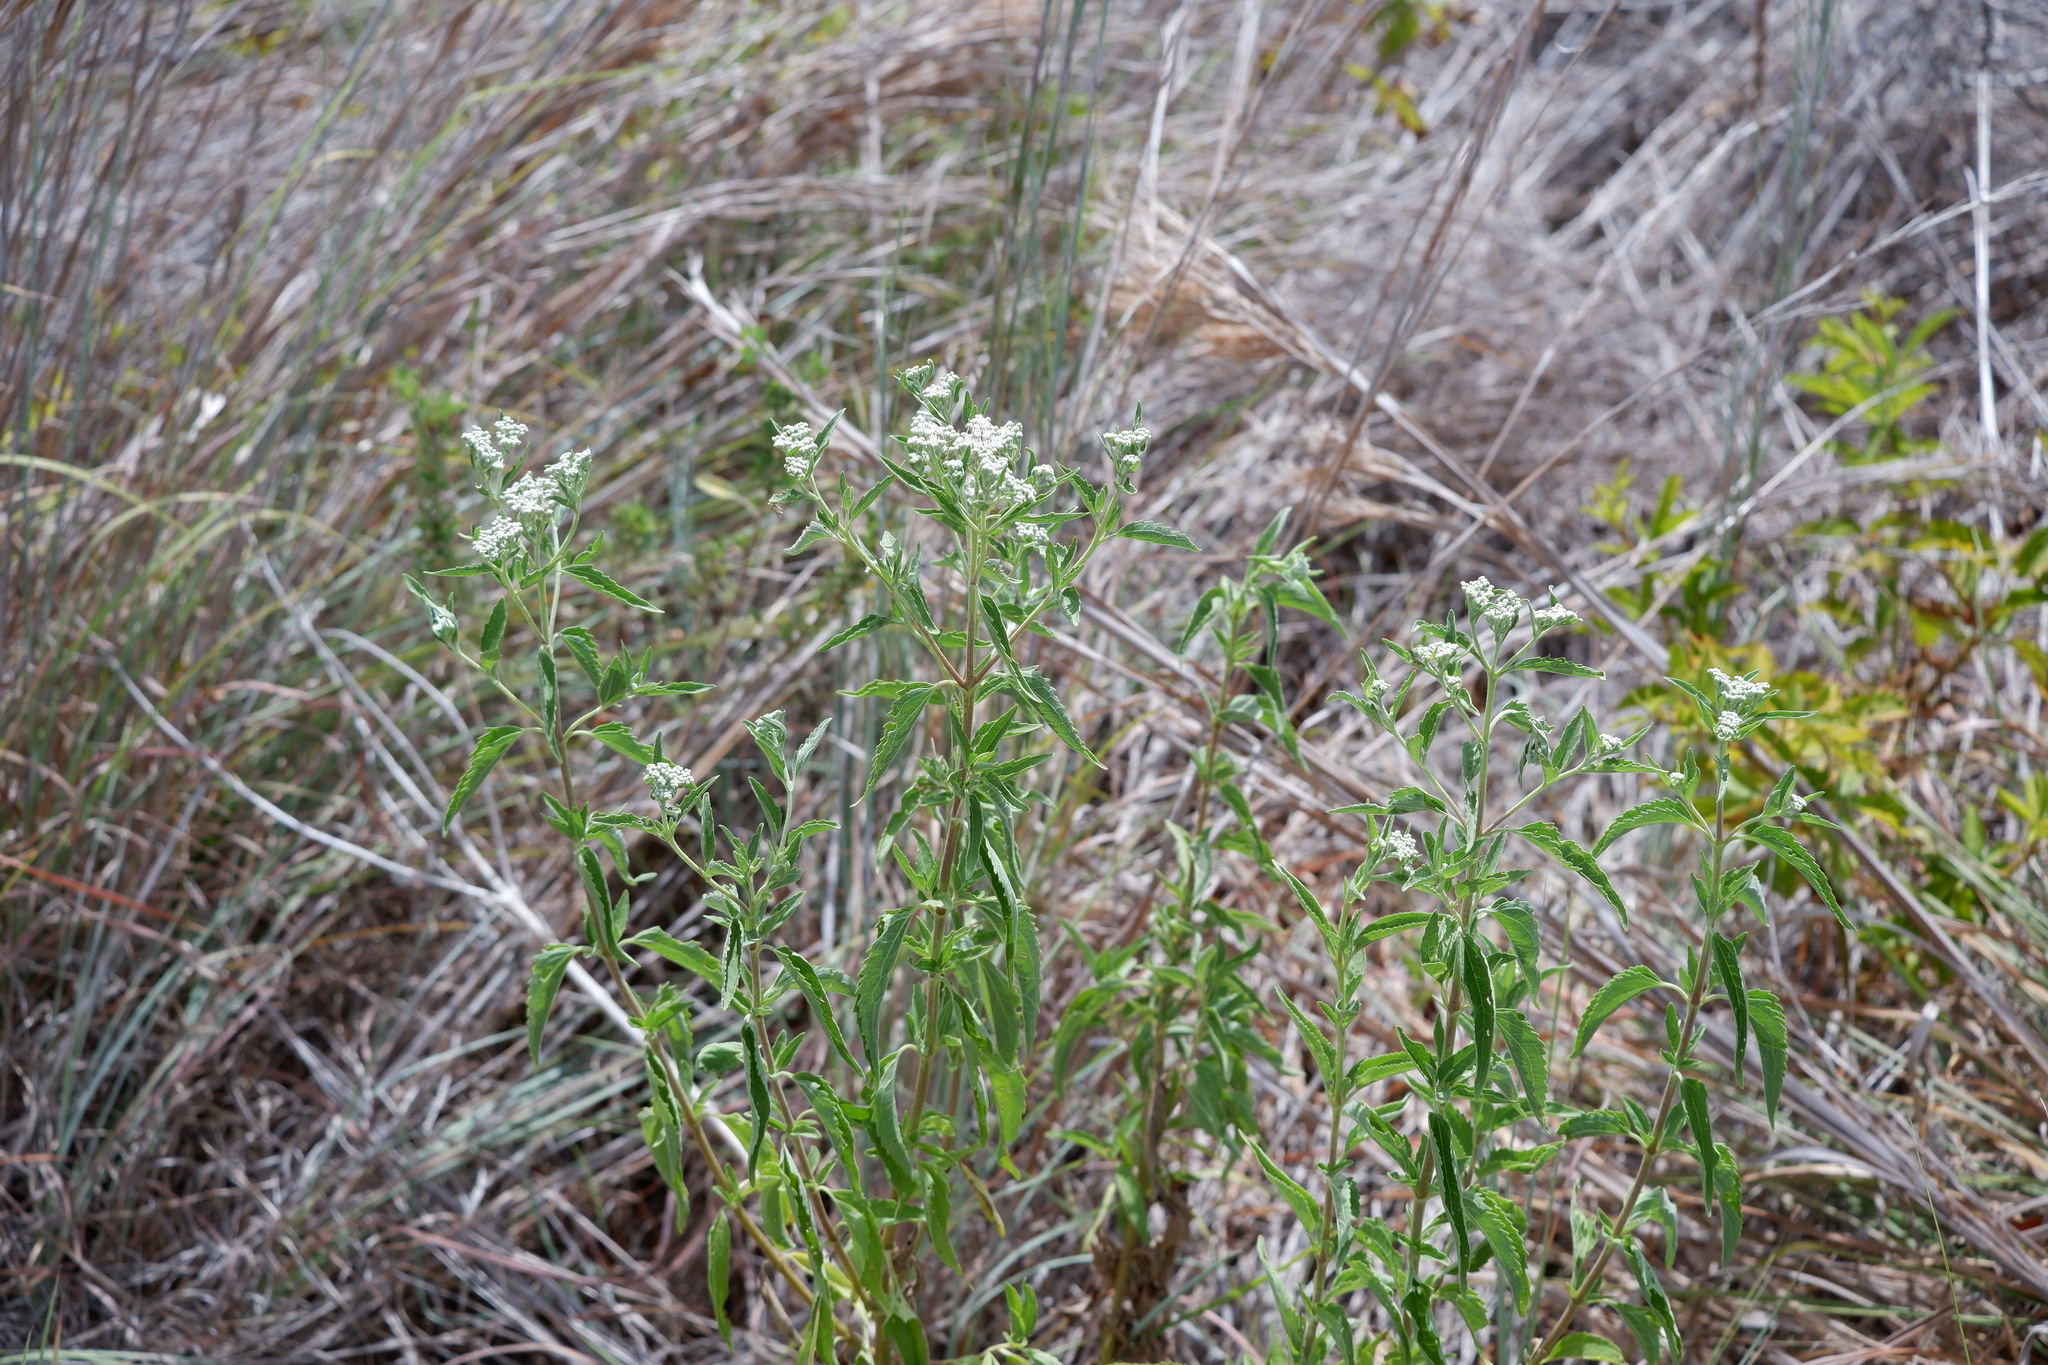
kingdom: Plantae
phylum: Tracheophyta
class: Magnoliopsida
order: Asterales
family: Asteraceae
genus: Eupatorium
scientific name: Eupatorium serotinum
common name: Late boneset
